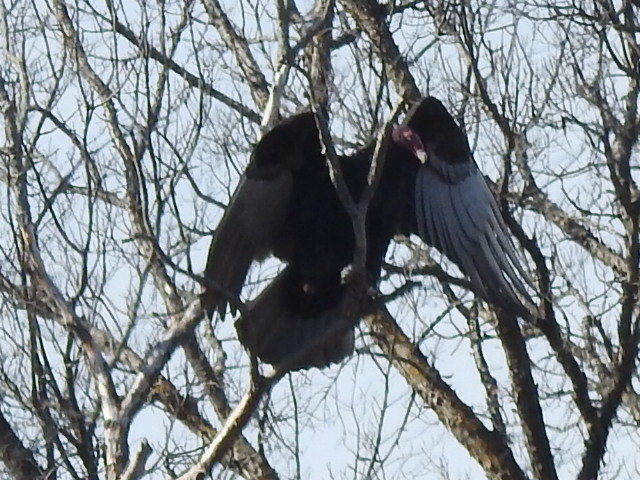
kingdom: Animalia
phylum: Chordata
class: Aves
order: Accipitriformes
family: Cathartidae
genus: Cathartes
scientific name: Cathartes aura
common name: Turkey vulture
